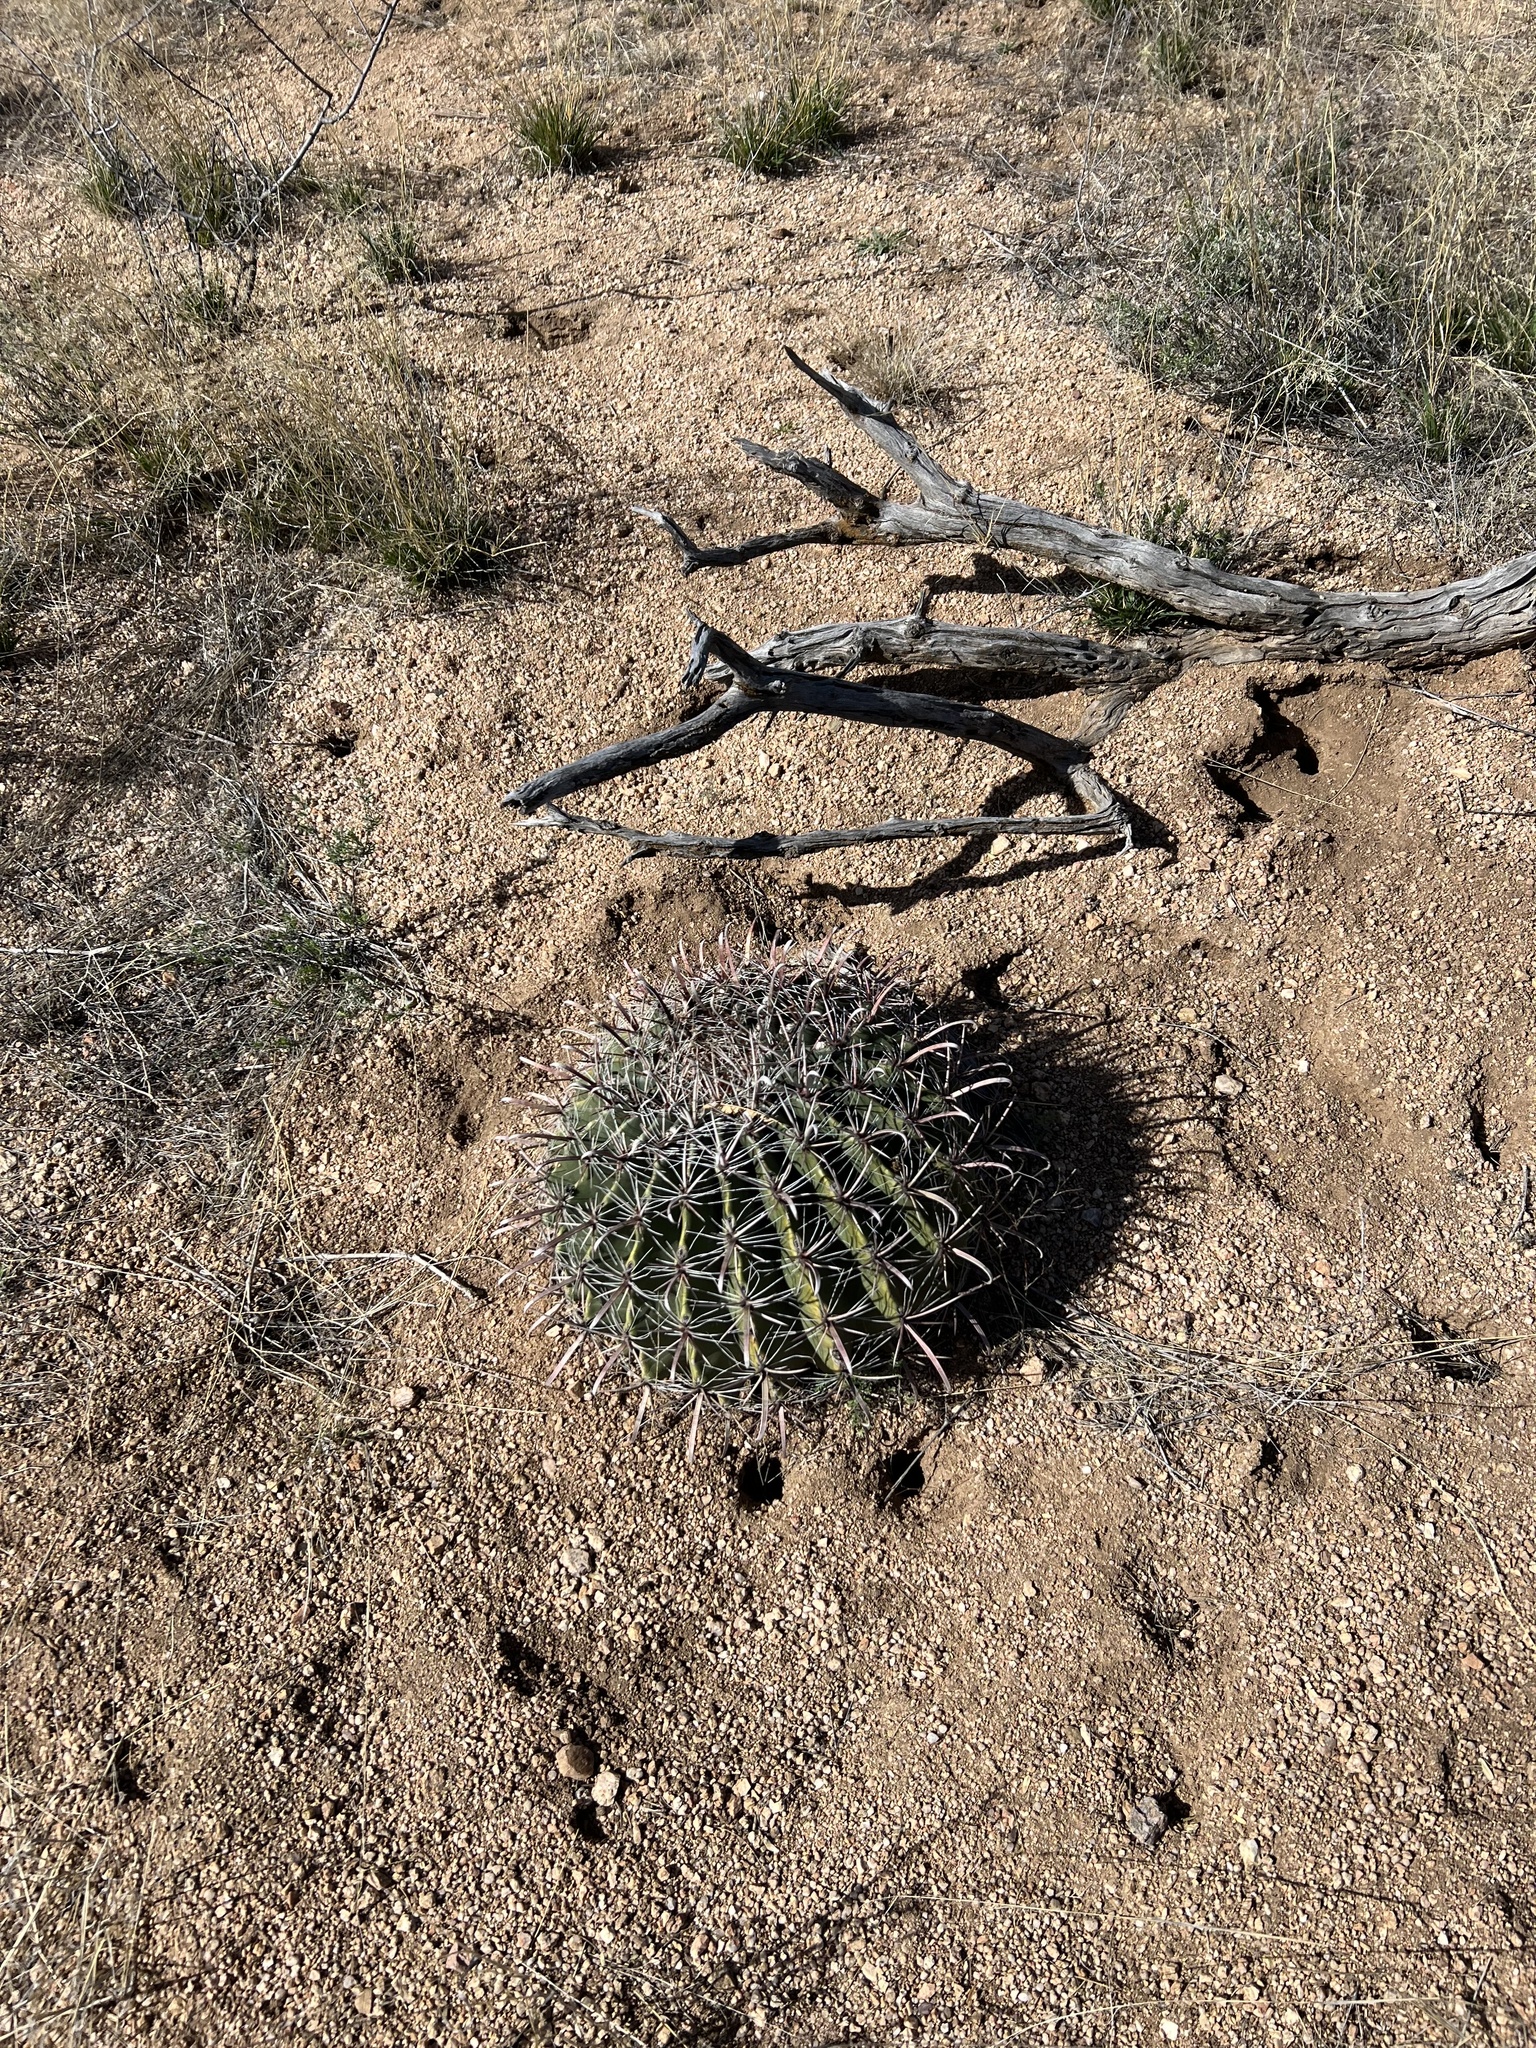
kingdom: Plantae
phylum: Tracheophyta
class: Magnoliopsida
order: Caryophyllales
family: Cactaceae
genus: Ferocactus
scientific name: Ferocactus wislizeni
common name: Candy barrel cactus
